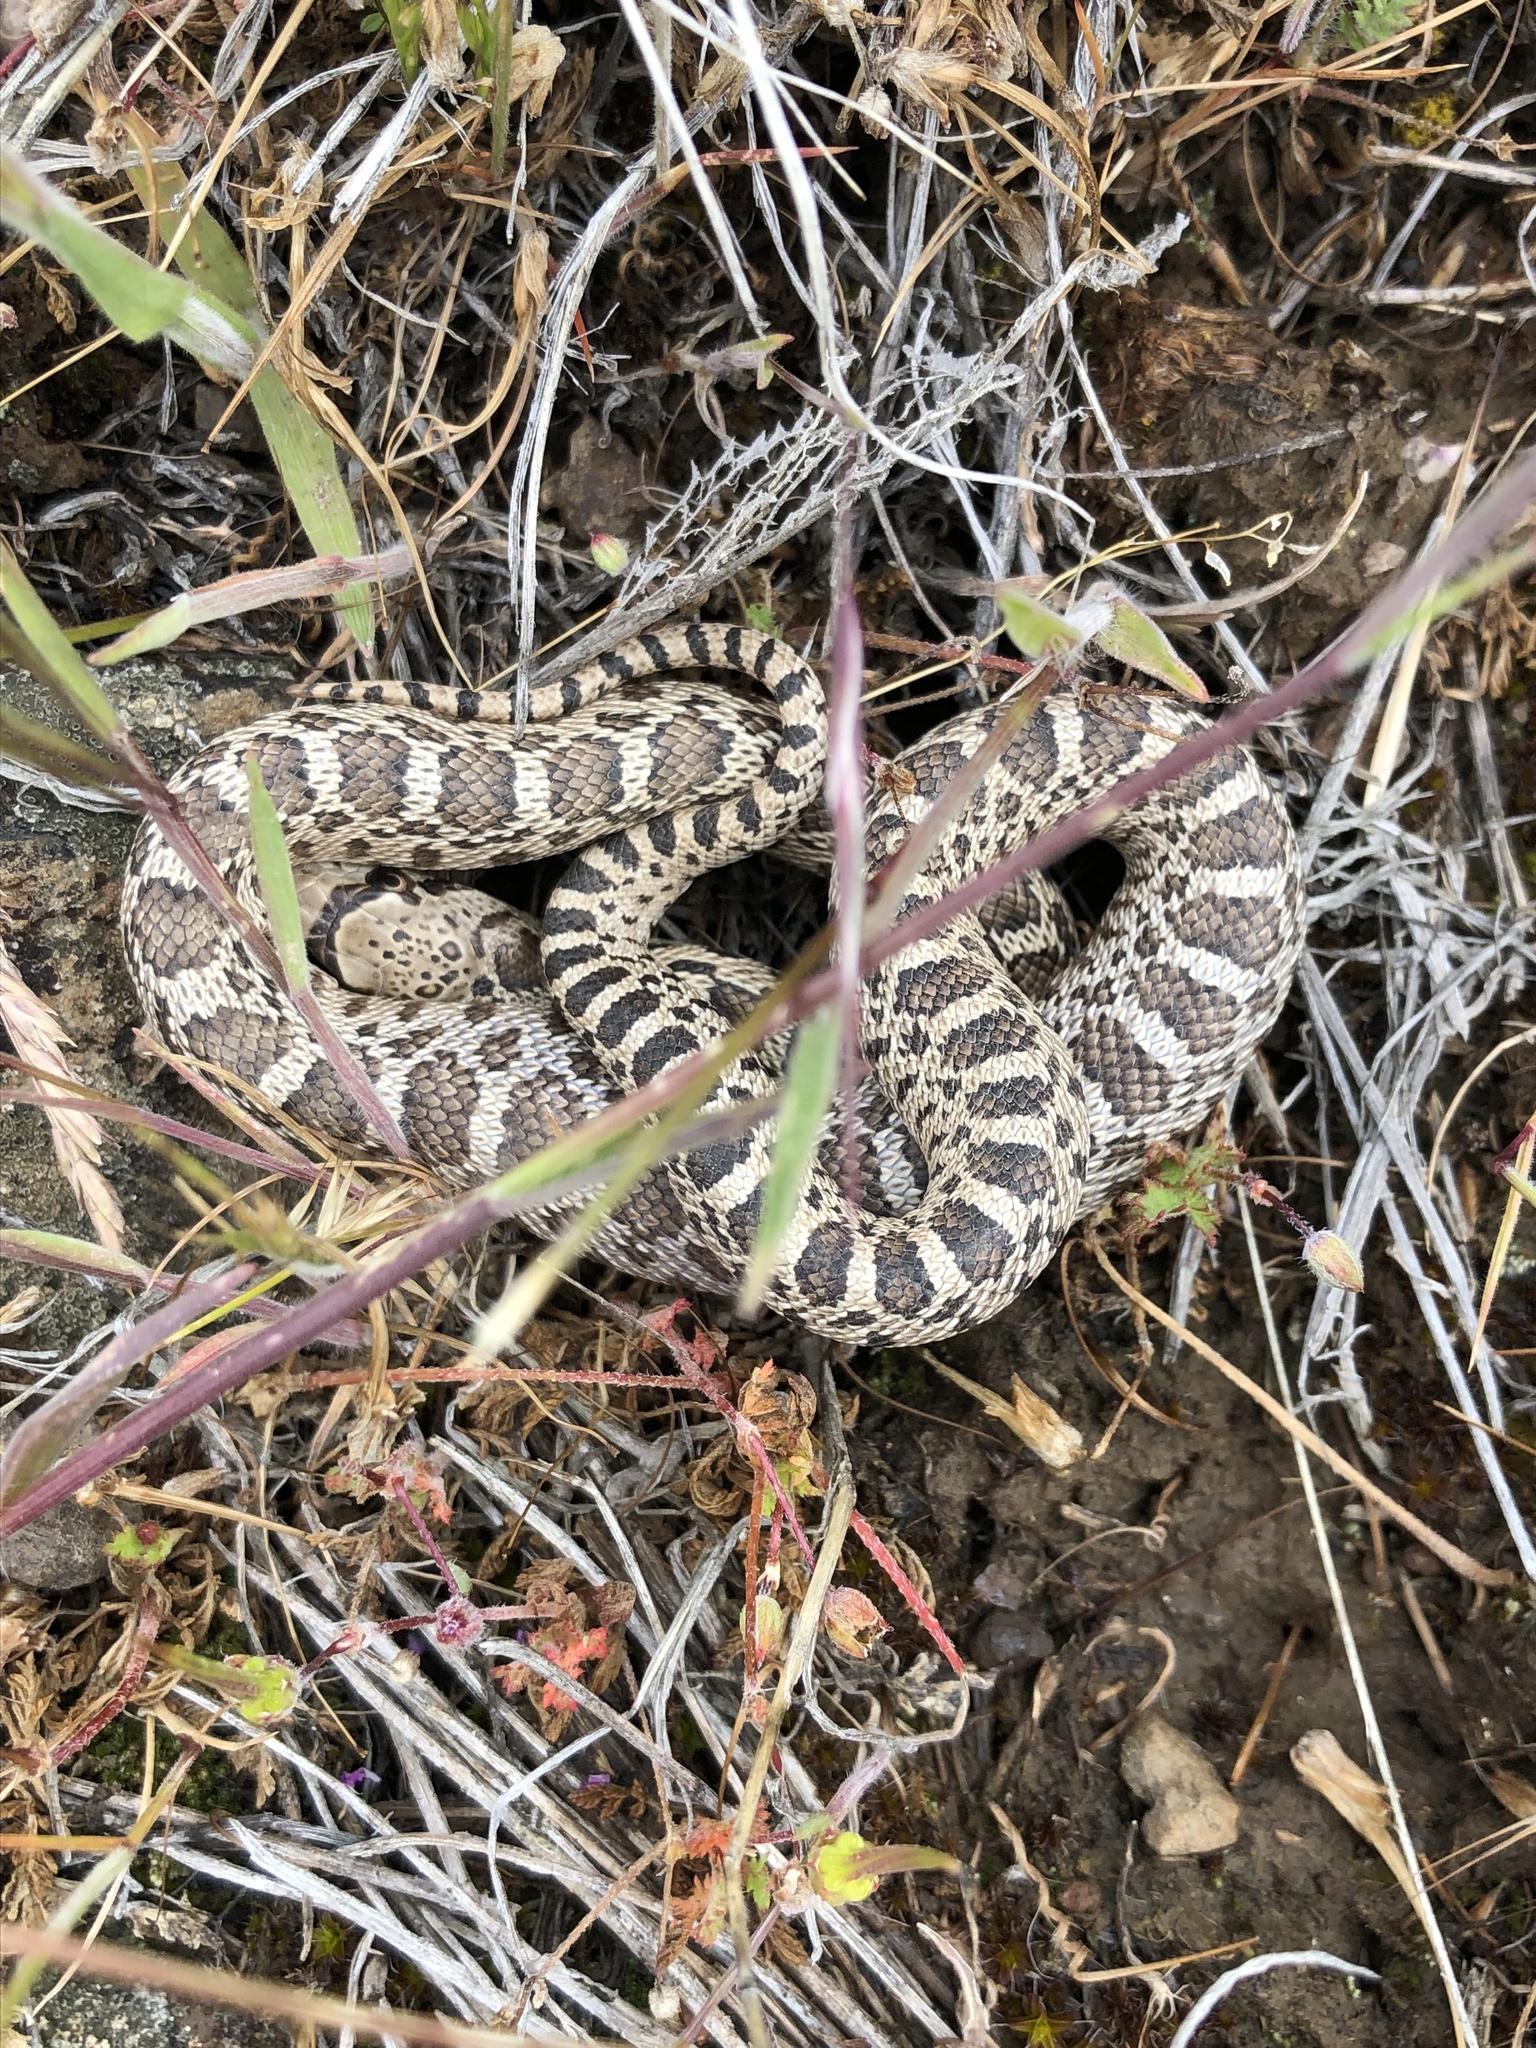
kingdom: Animalia
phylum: Chordata
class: Squamata
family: Colubridae
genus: Pituophis
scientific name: Pituophis catenifer
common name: Gopher snake
